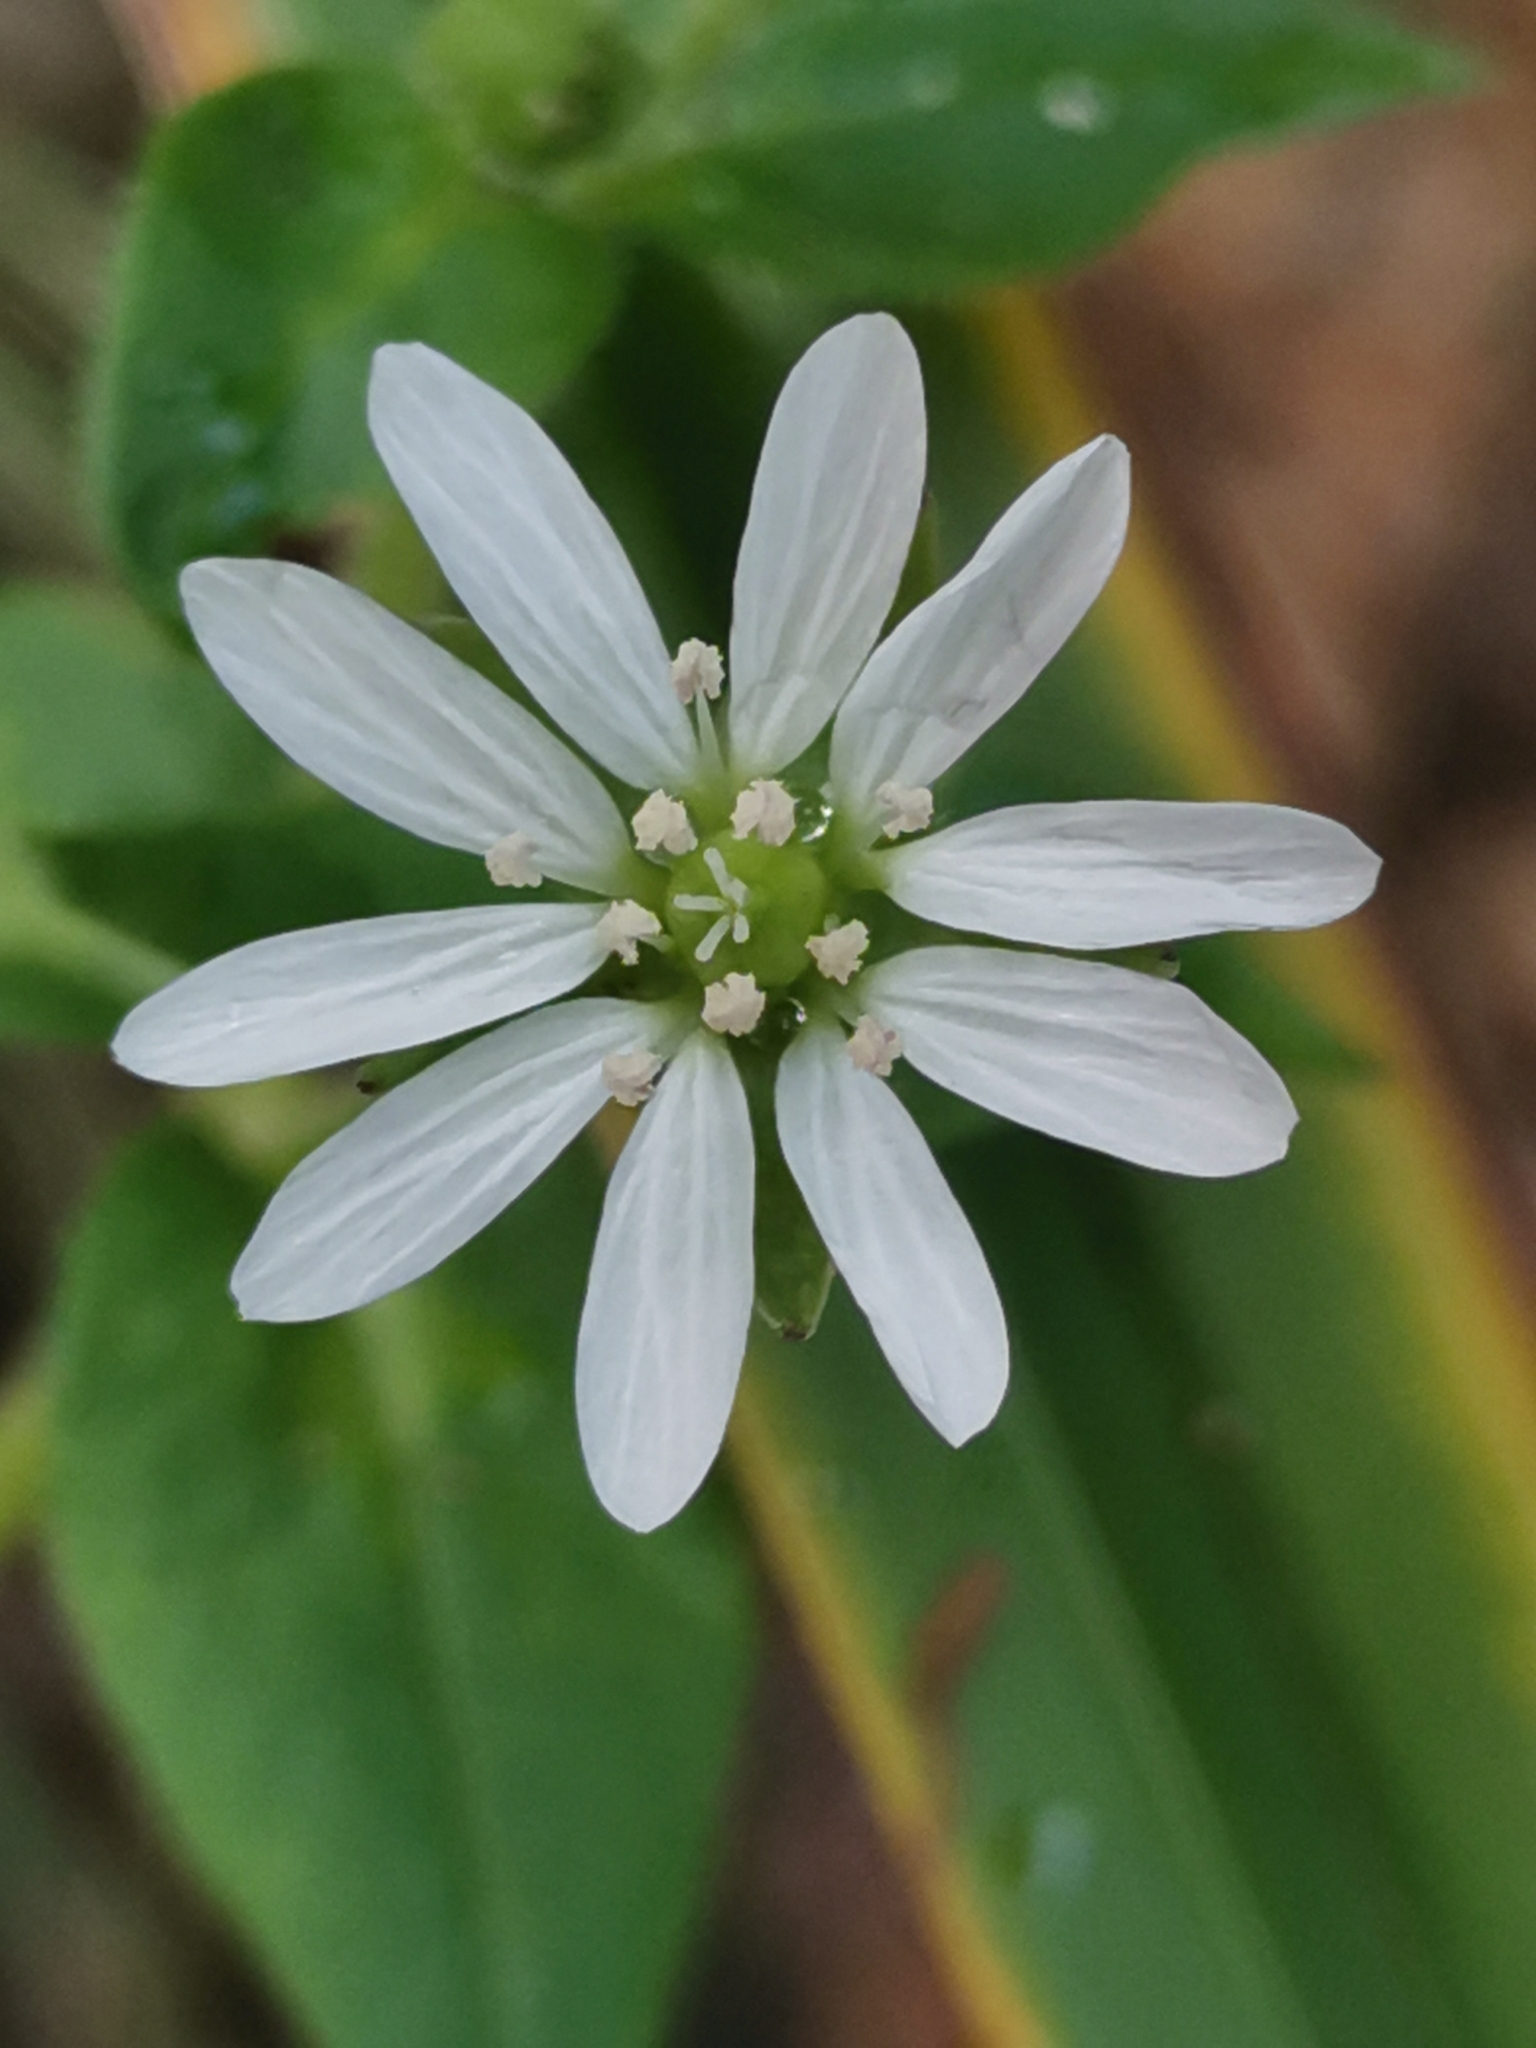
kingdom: Plantae
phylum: Tracheophyta
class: Magnoliopsida
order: Caryophyllales
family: Caryophyllaceae
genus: Stellaria
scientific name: Stellaria aquatica
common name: Water chickweed
